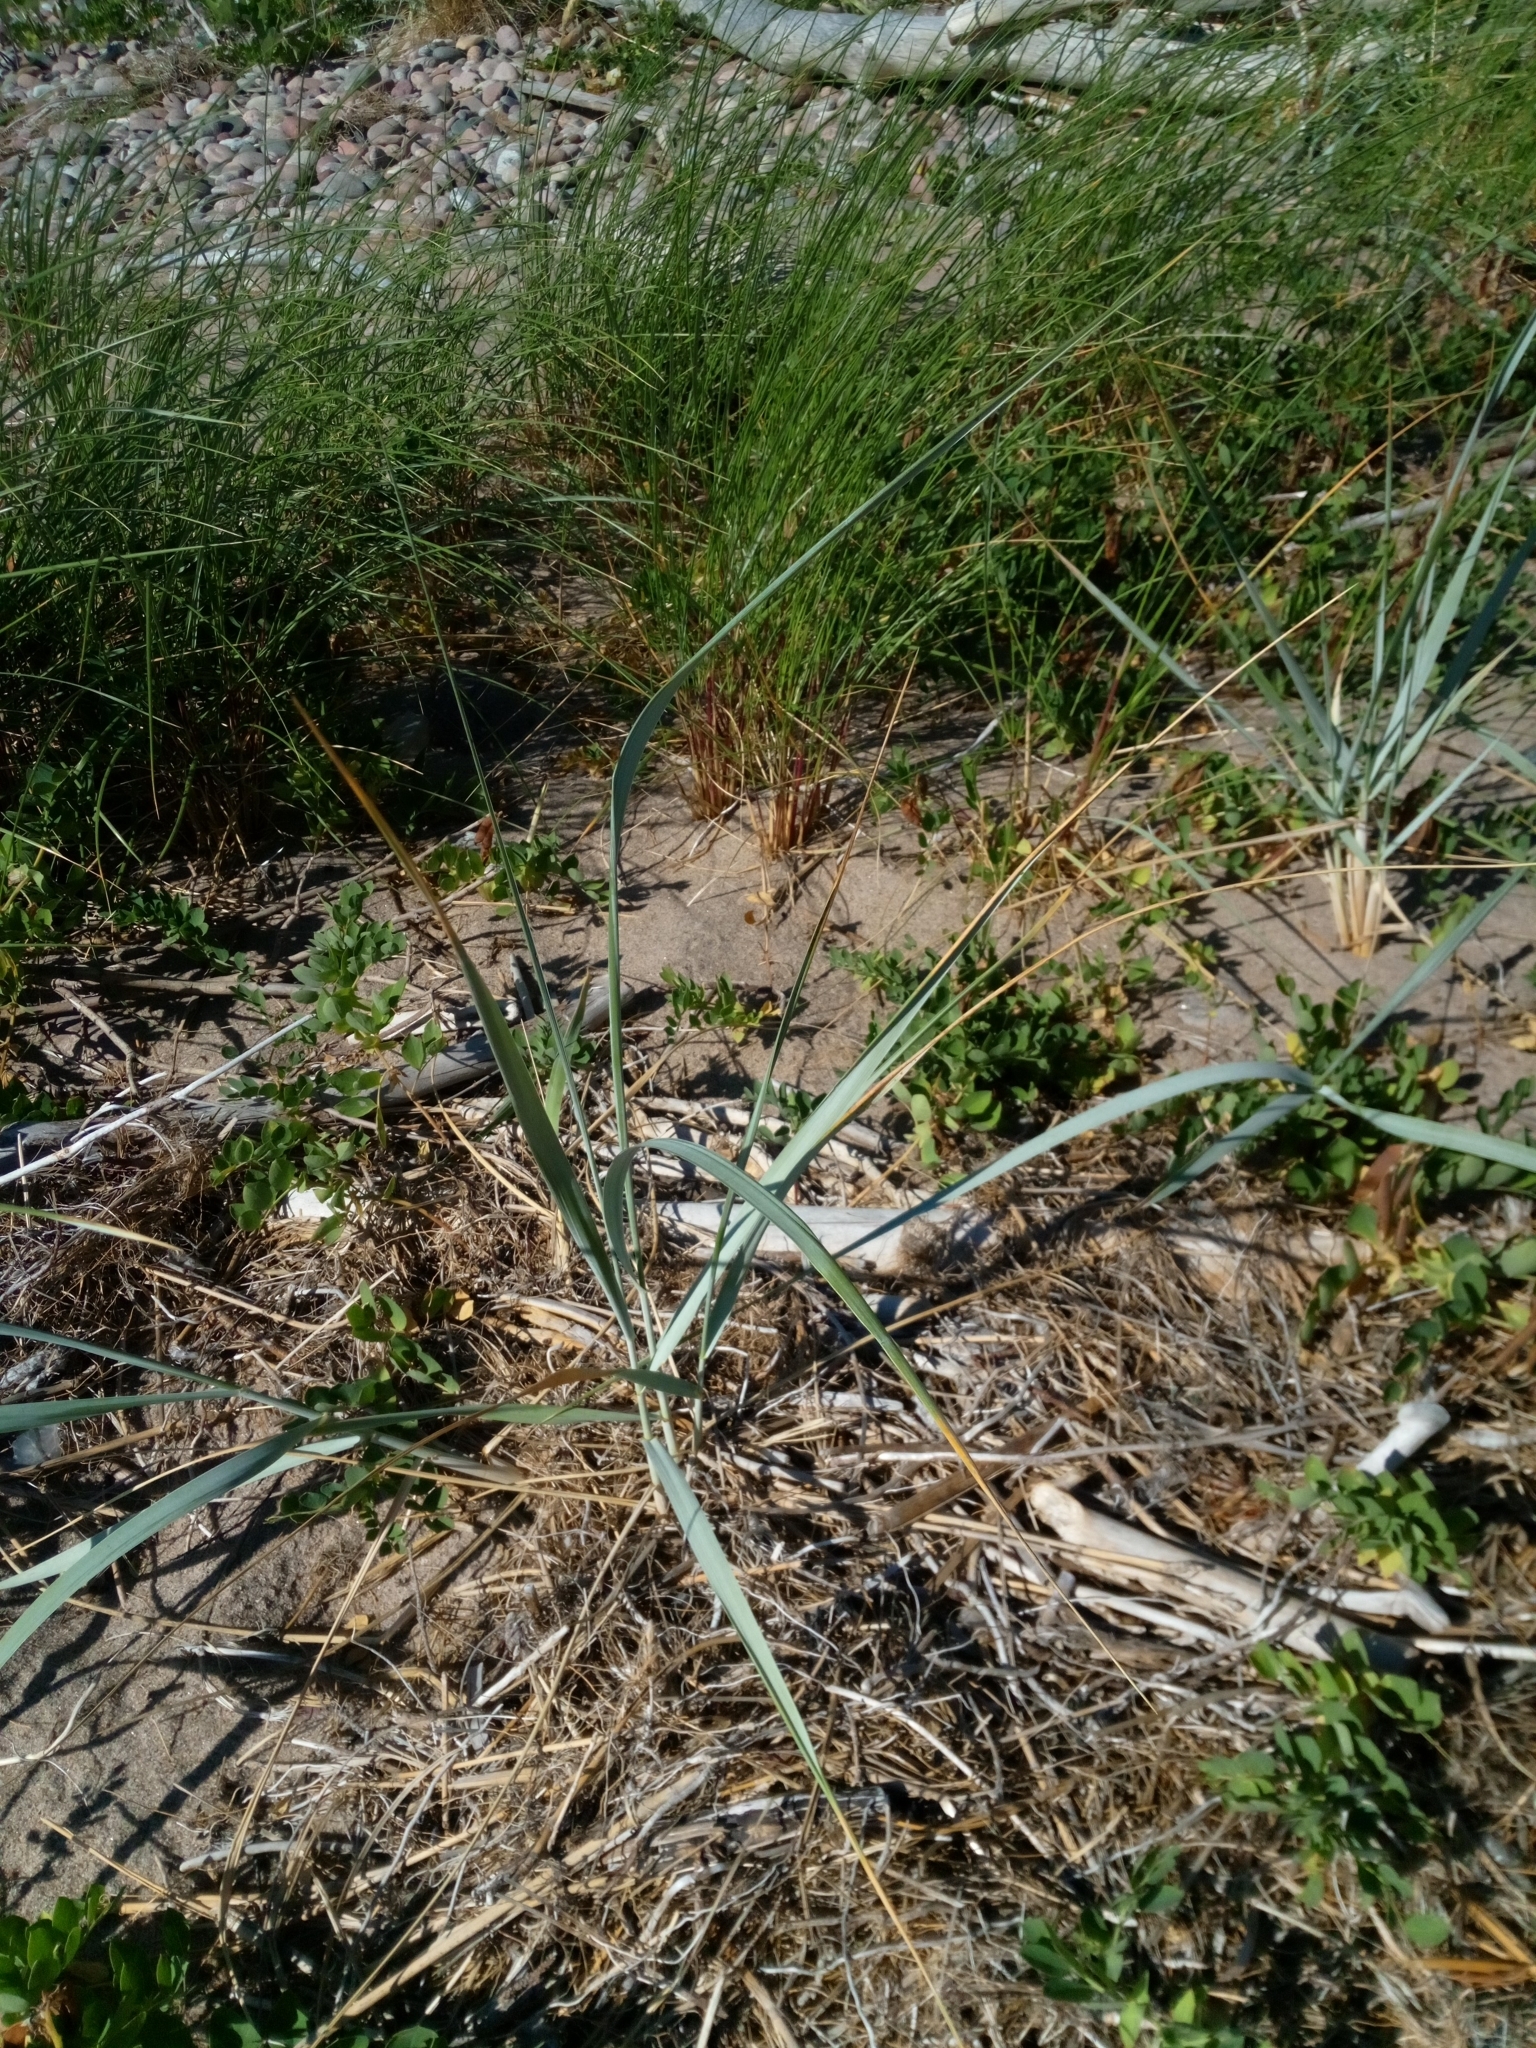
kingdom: Plantae
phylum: Tracheophyta
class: Liliopsida
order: Poales
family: Poaceae
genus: Leymus
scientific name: Leymus arenarius
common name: Lyme-grass
